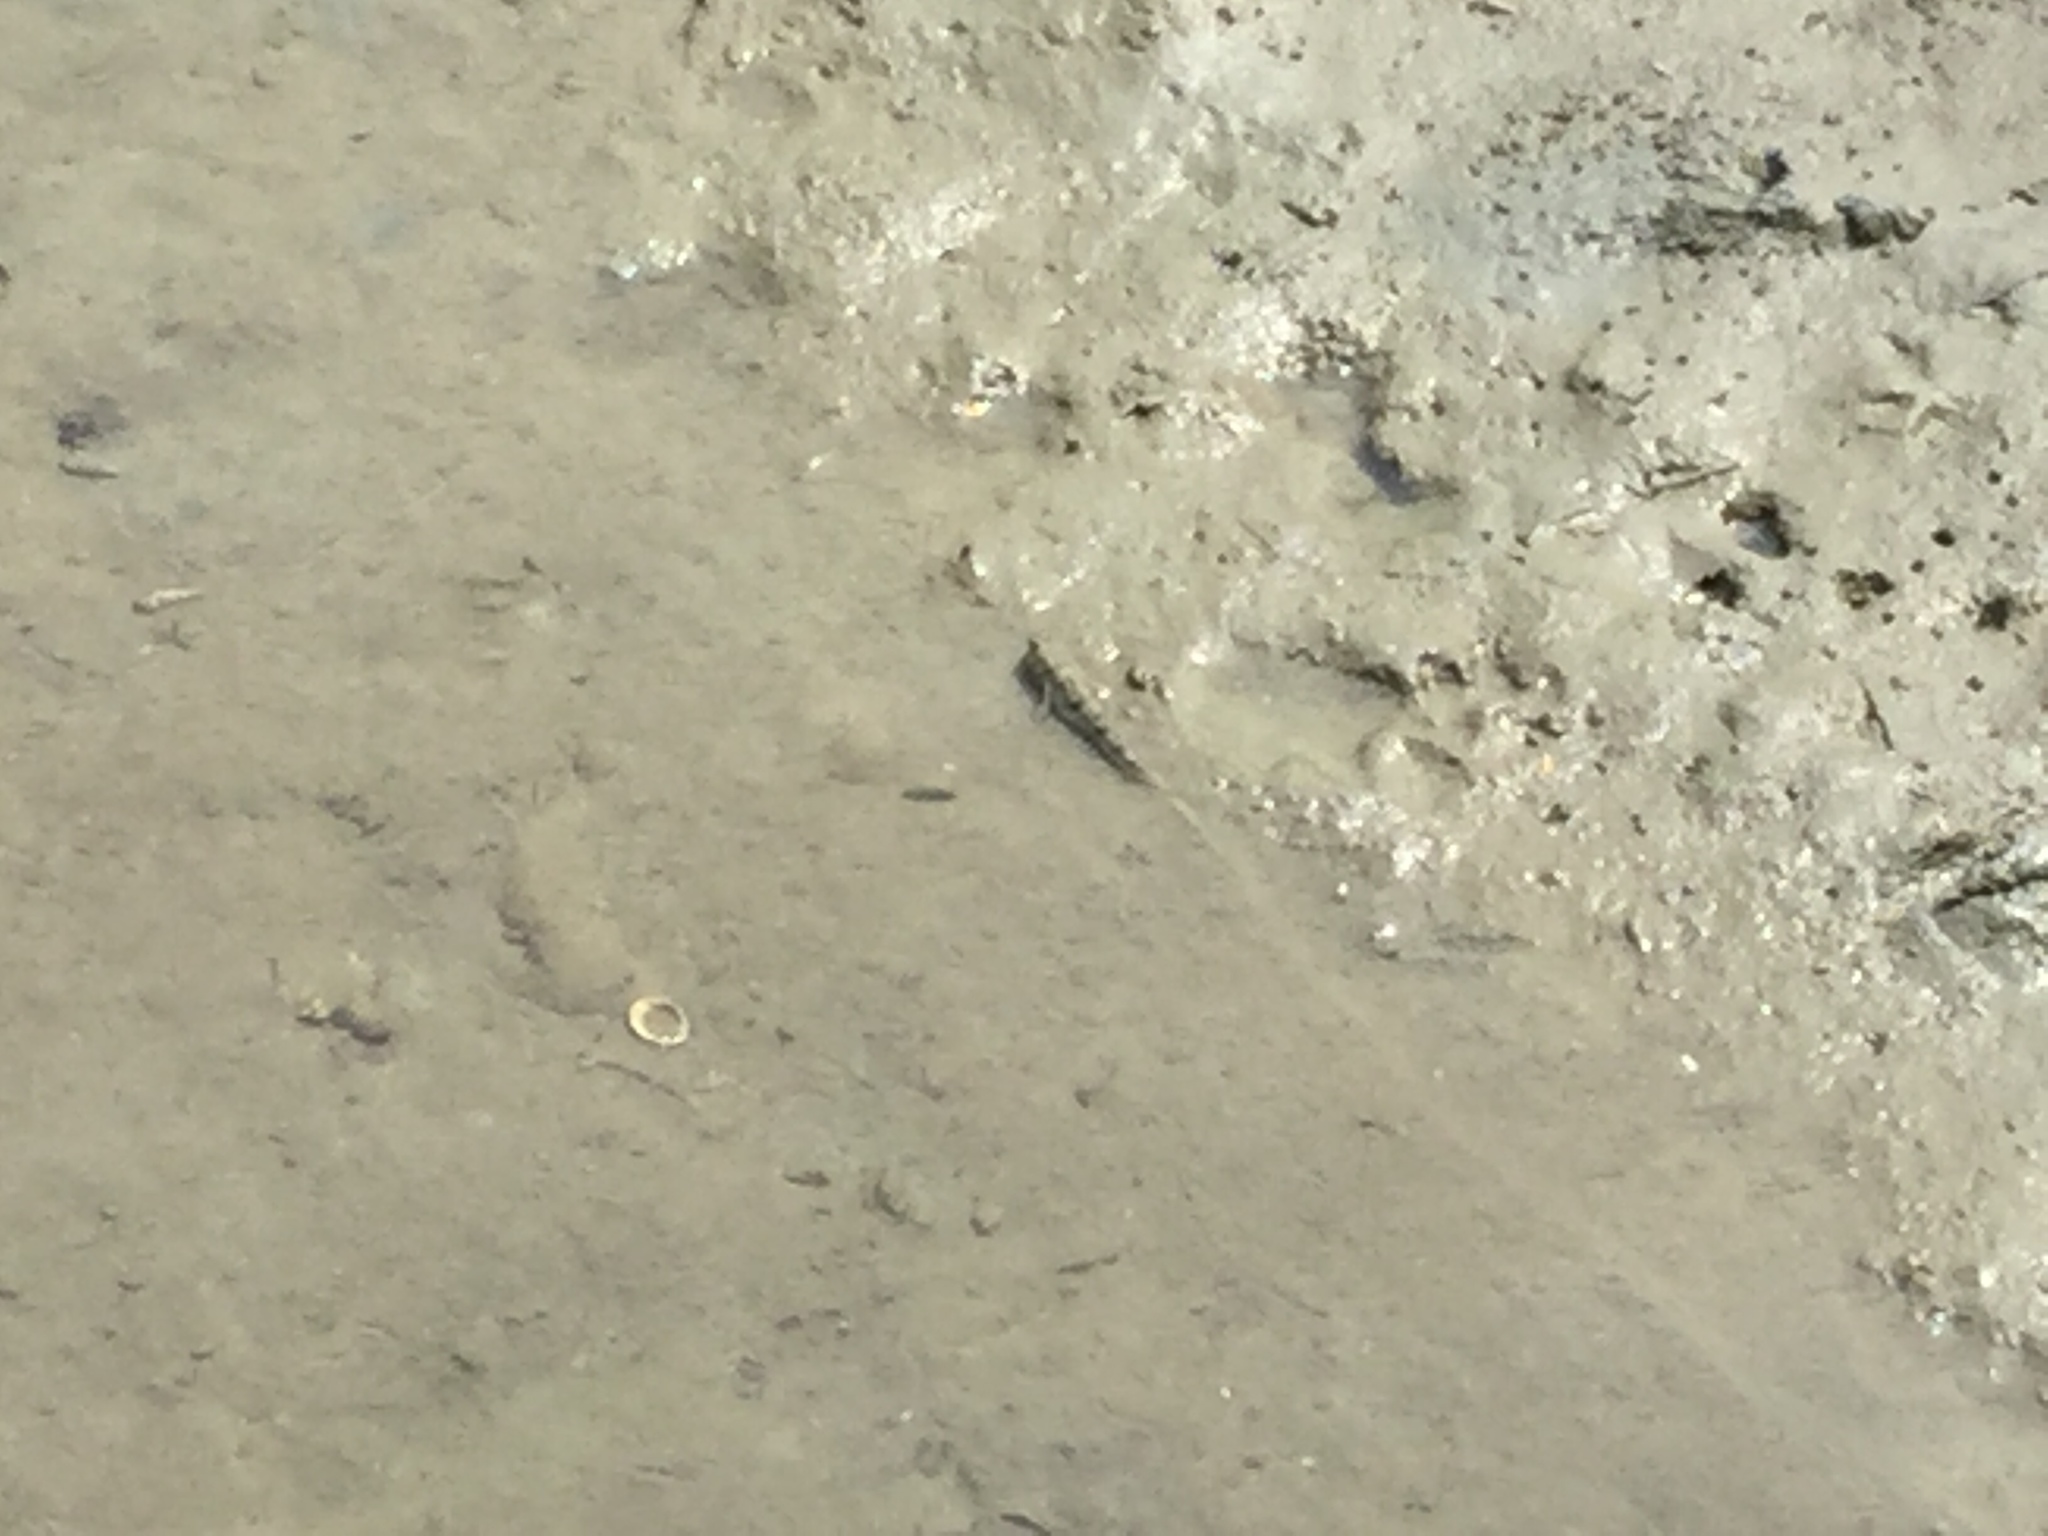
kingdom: Animalia
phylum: Chordata
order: Perciformes
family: Gobiidae
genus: Periophthalmus
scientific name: Periophthalmus modestus
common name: Black goby
